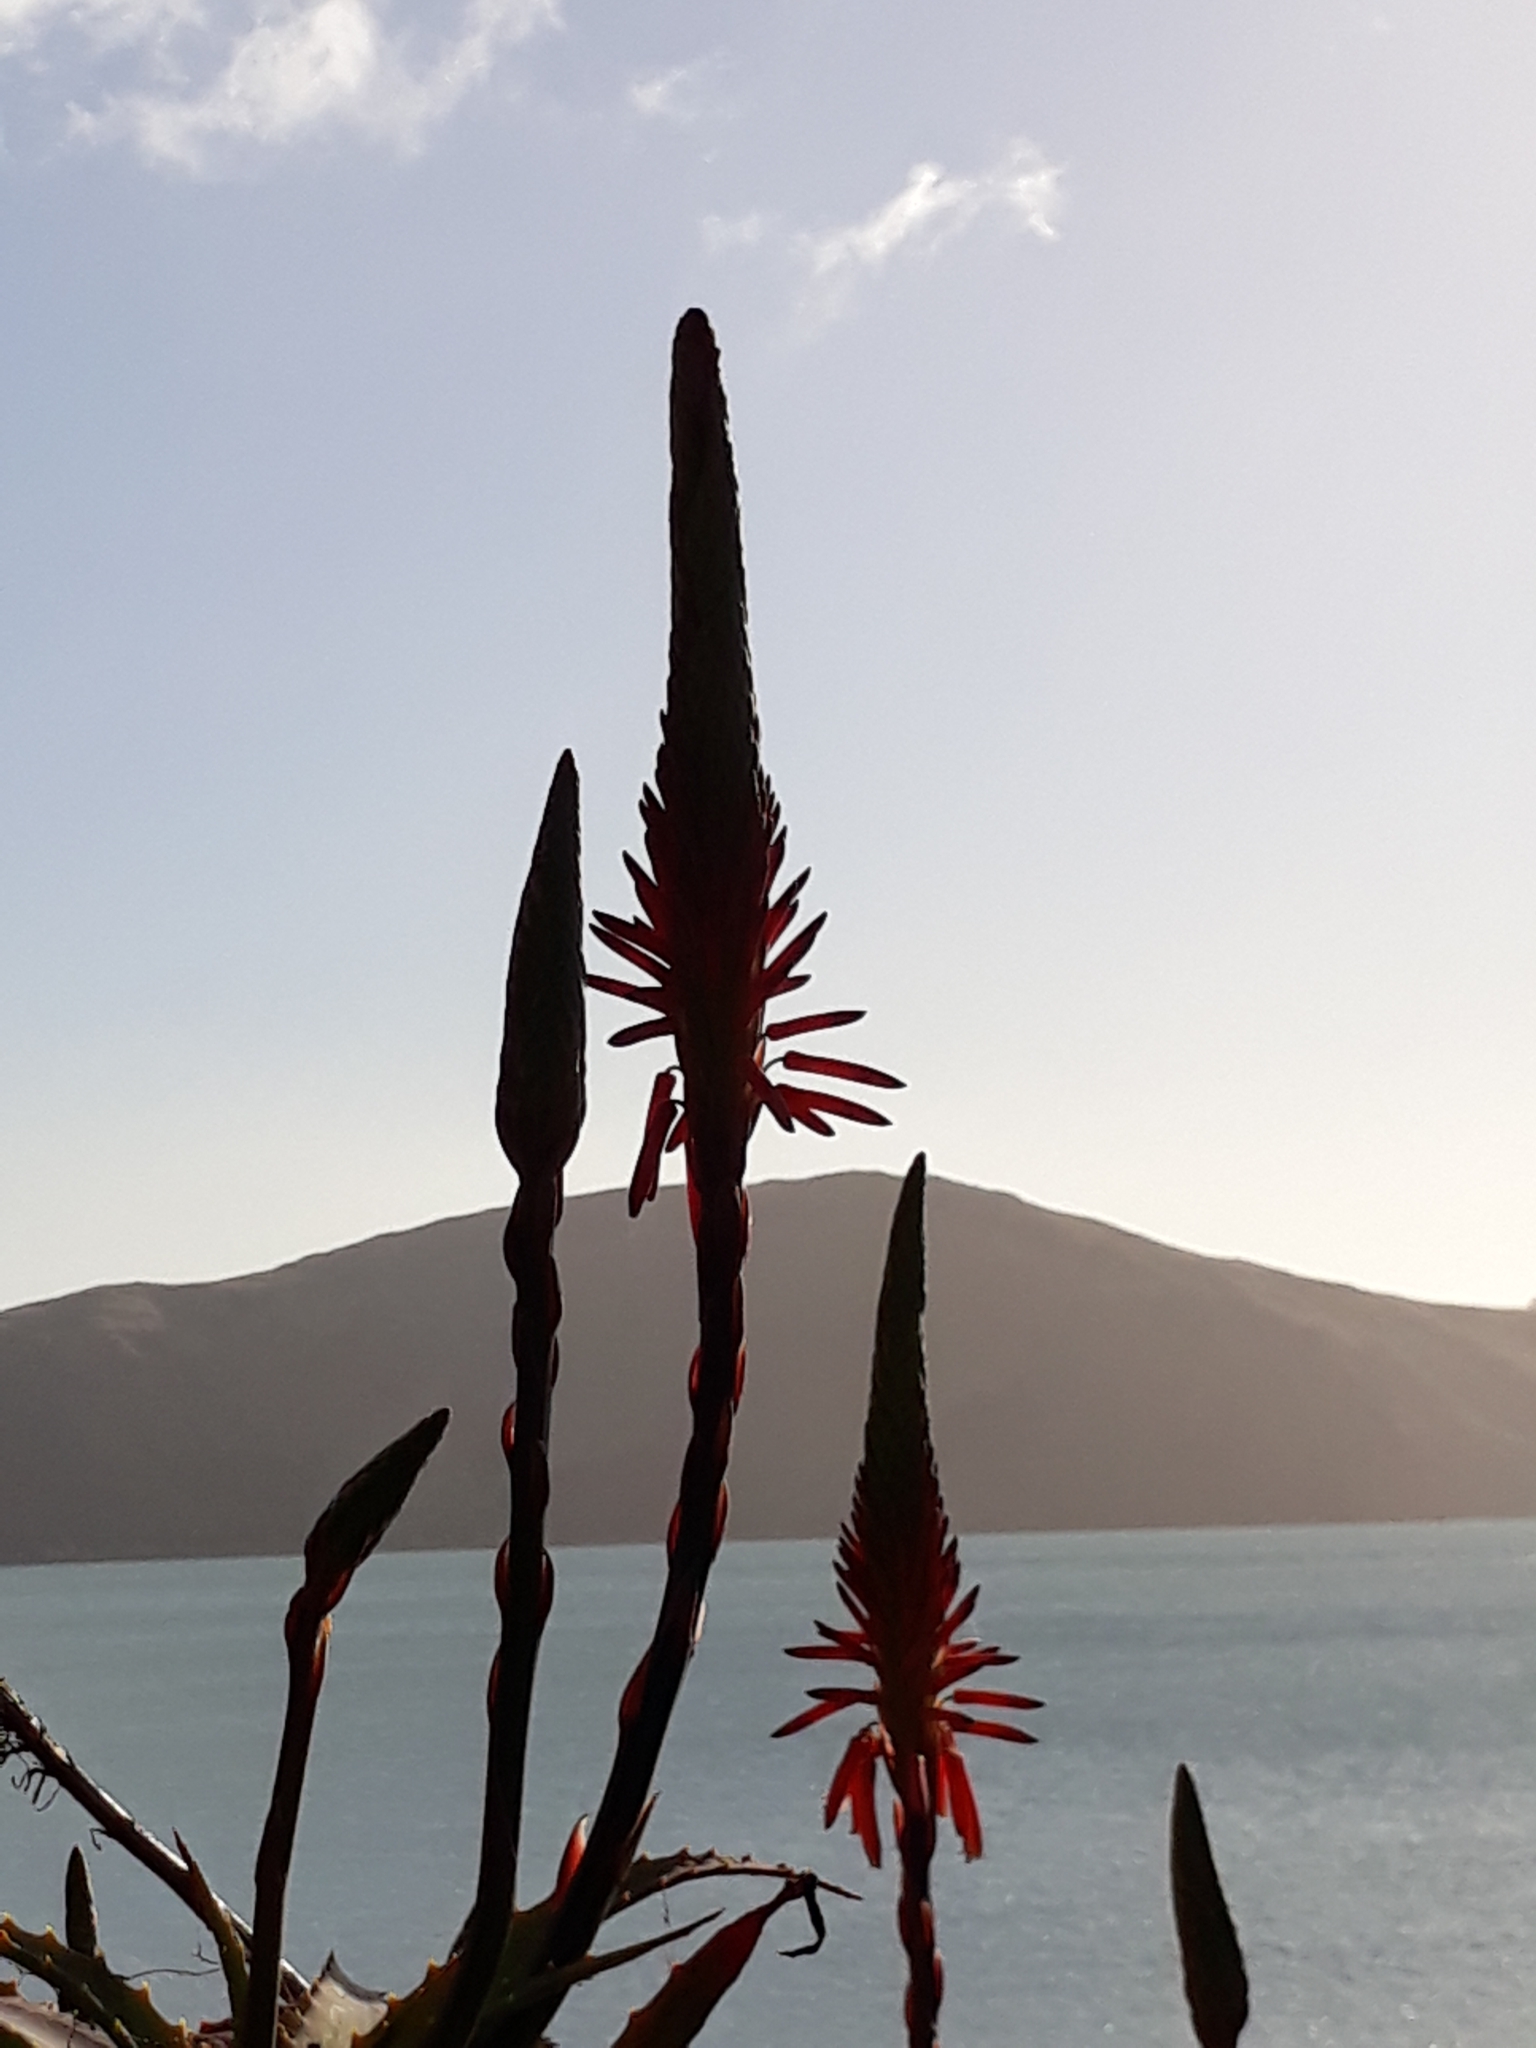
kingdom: Plantae
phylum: Tracheophyta
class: Liliopsida
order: Asparagales
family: Asphodelaceae
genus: Aloe
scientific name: Aloe arborescens
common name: Candelabra aloe
